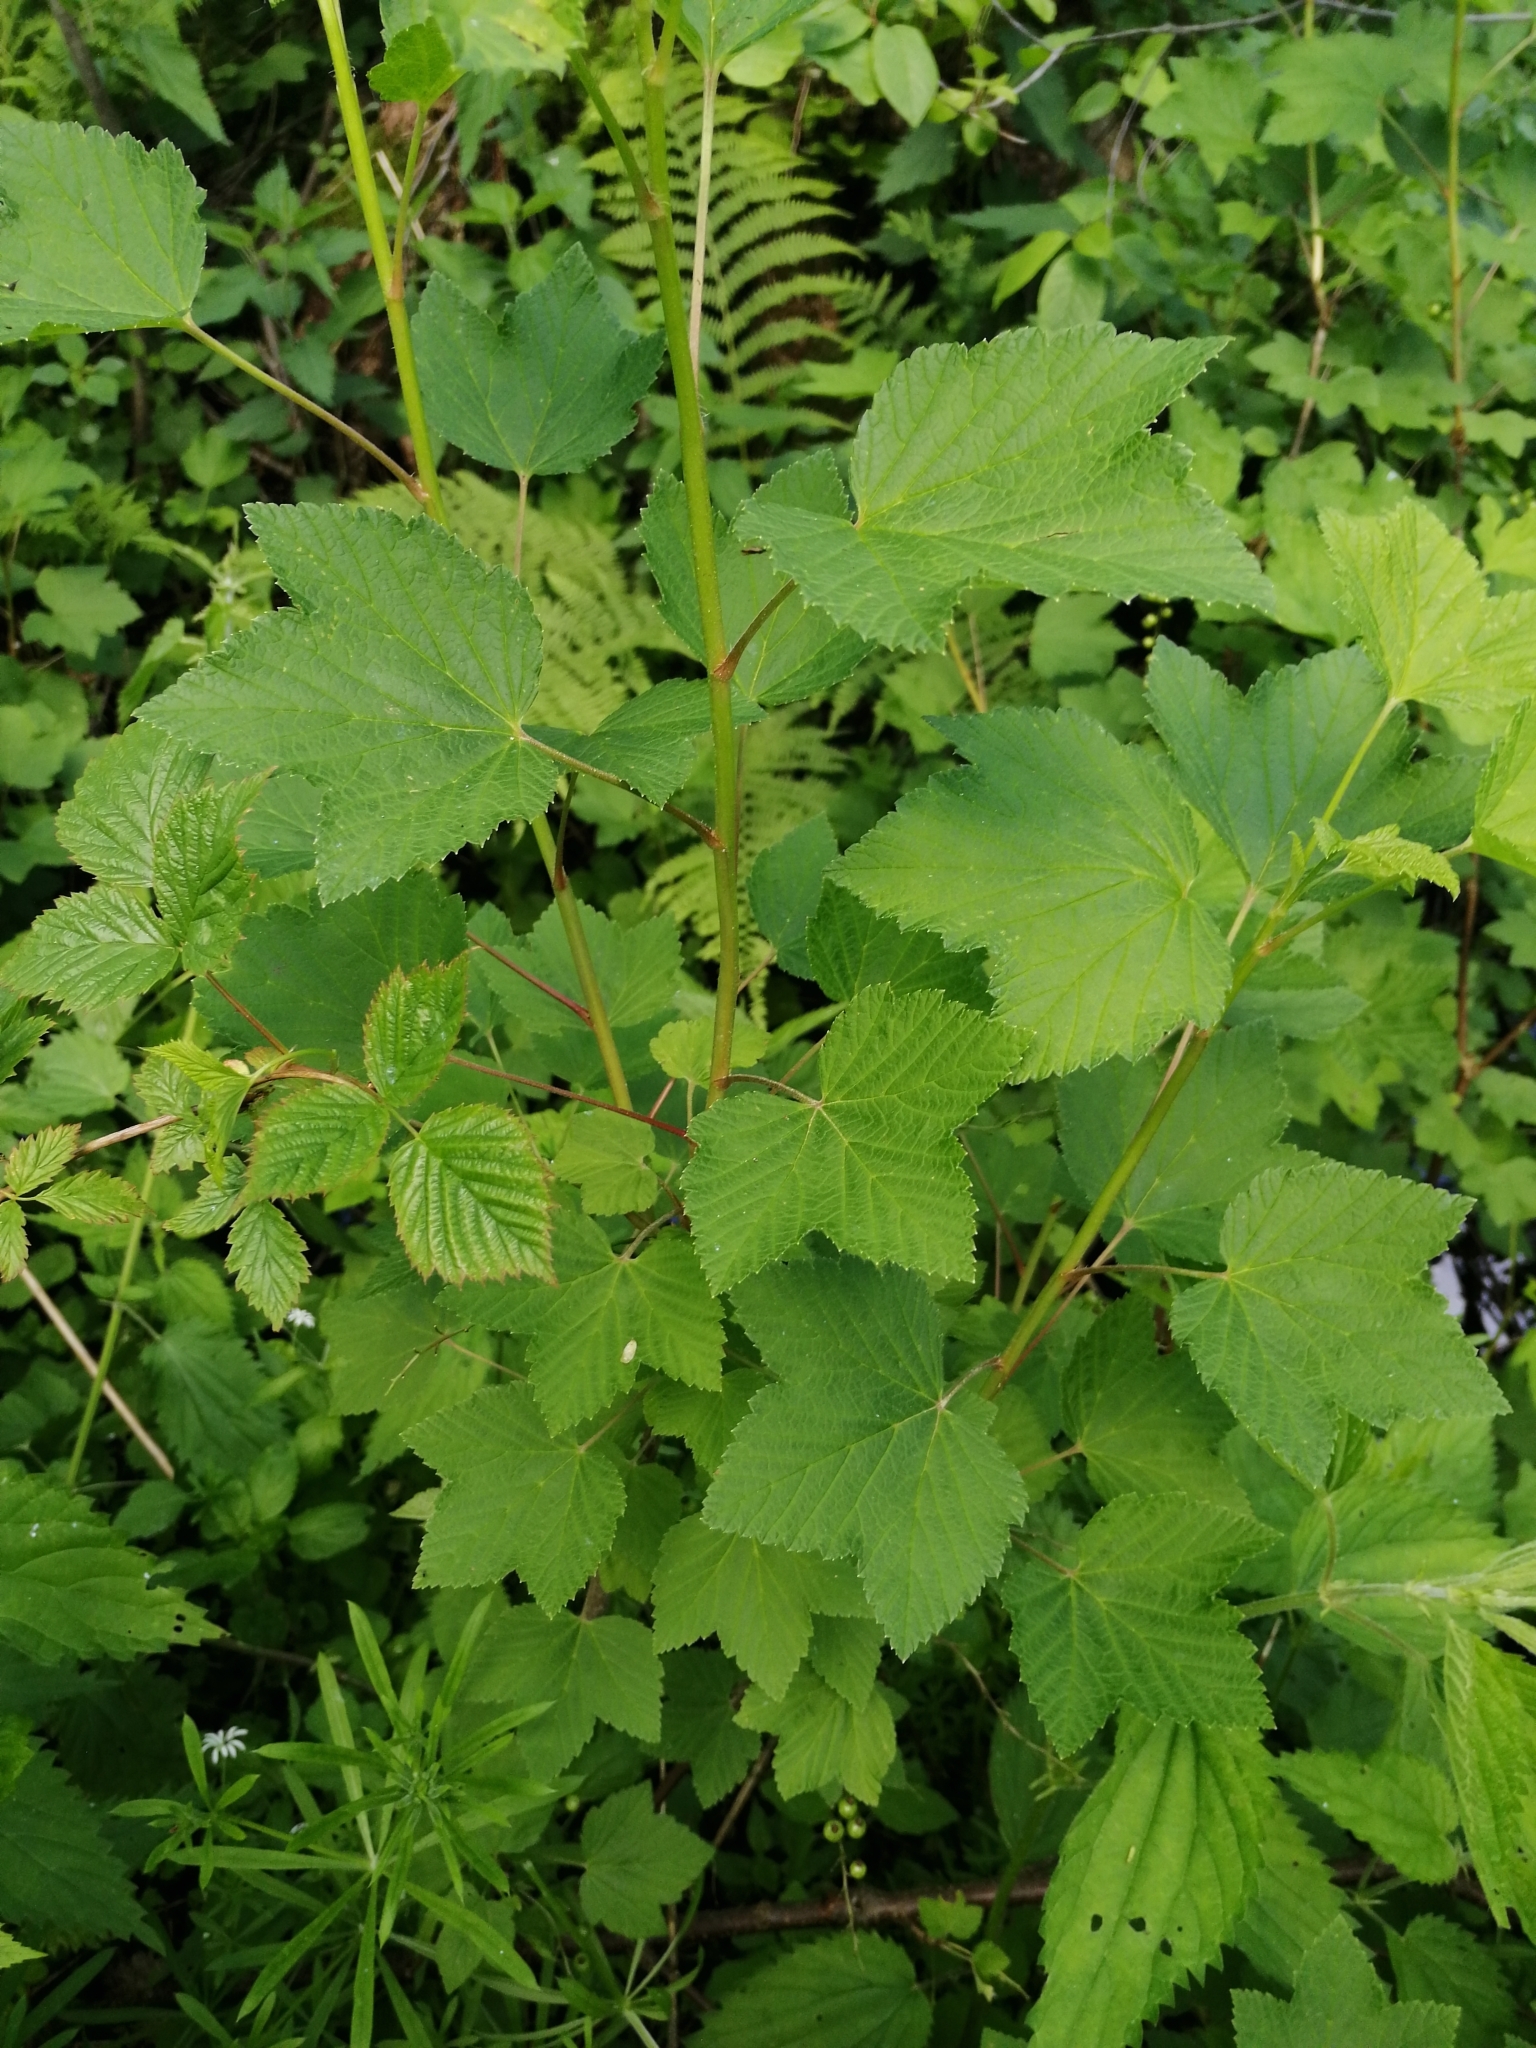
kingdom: Plantae
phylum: Tracheophyta
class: Magnoliopsida
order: Saxifragales
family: Grossulariaceae
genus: Ribes
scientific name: Ribes spicatum
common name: Downy currant
